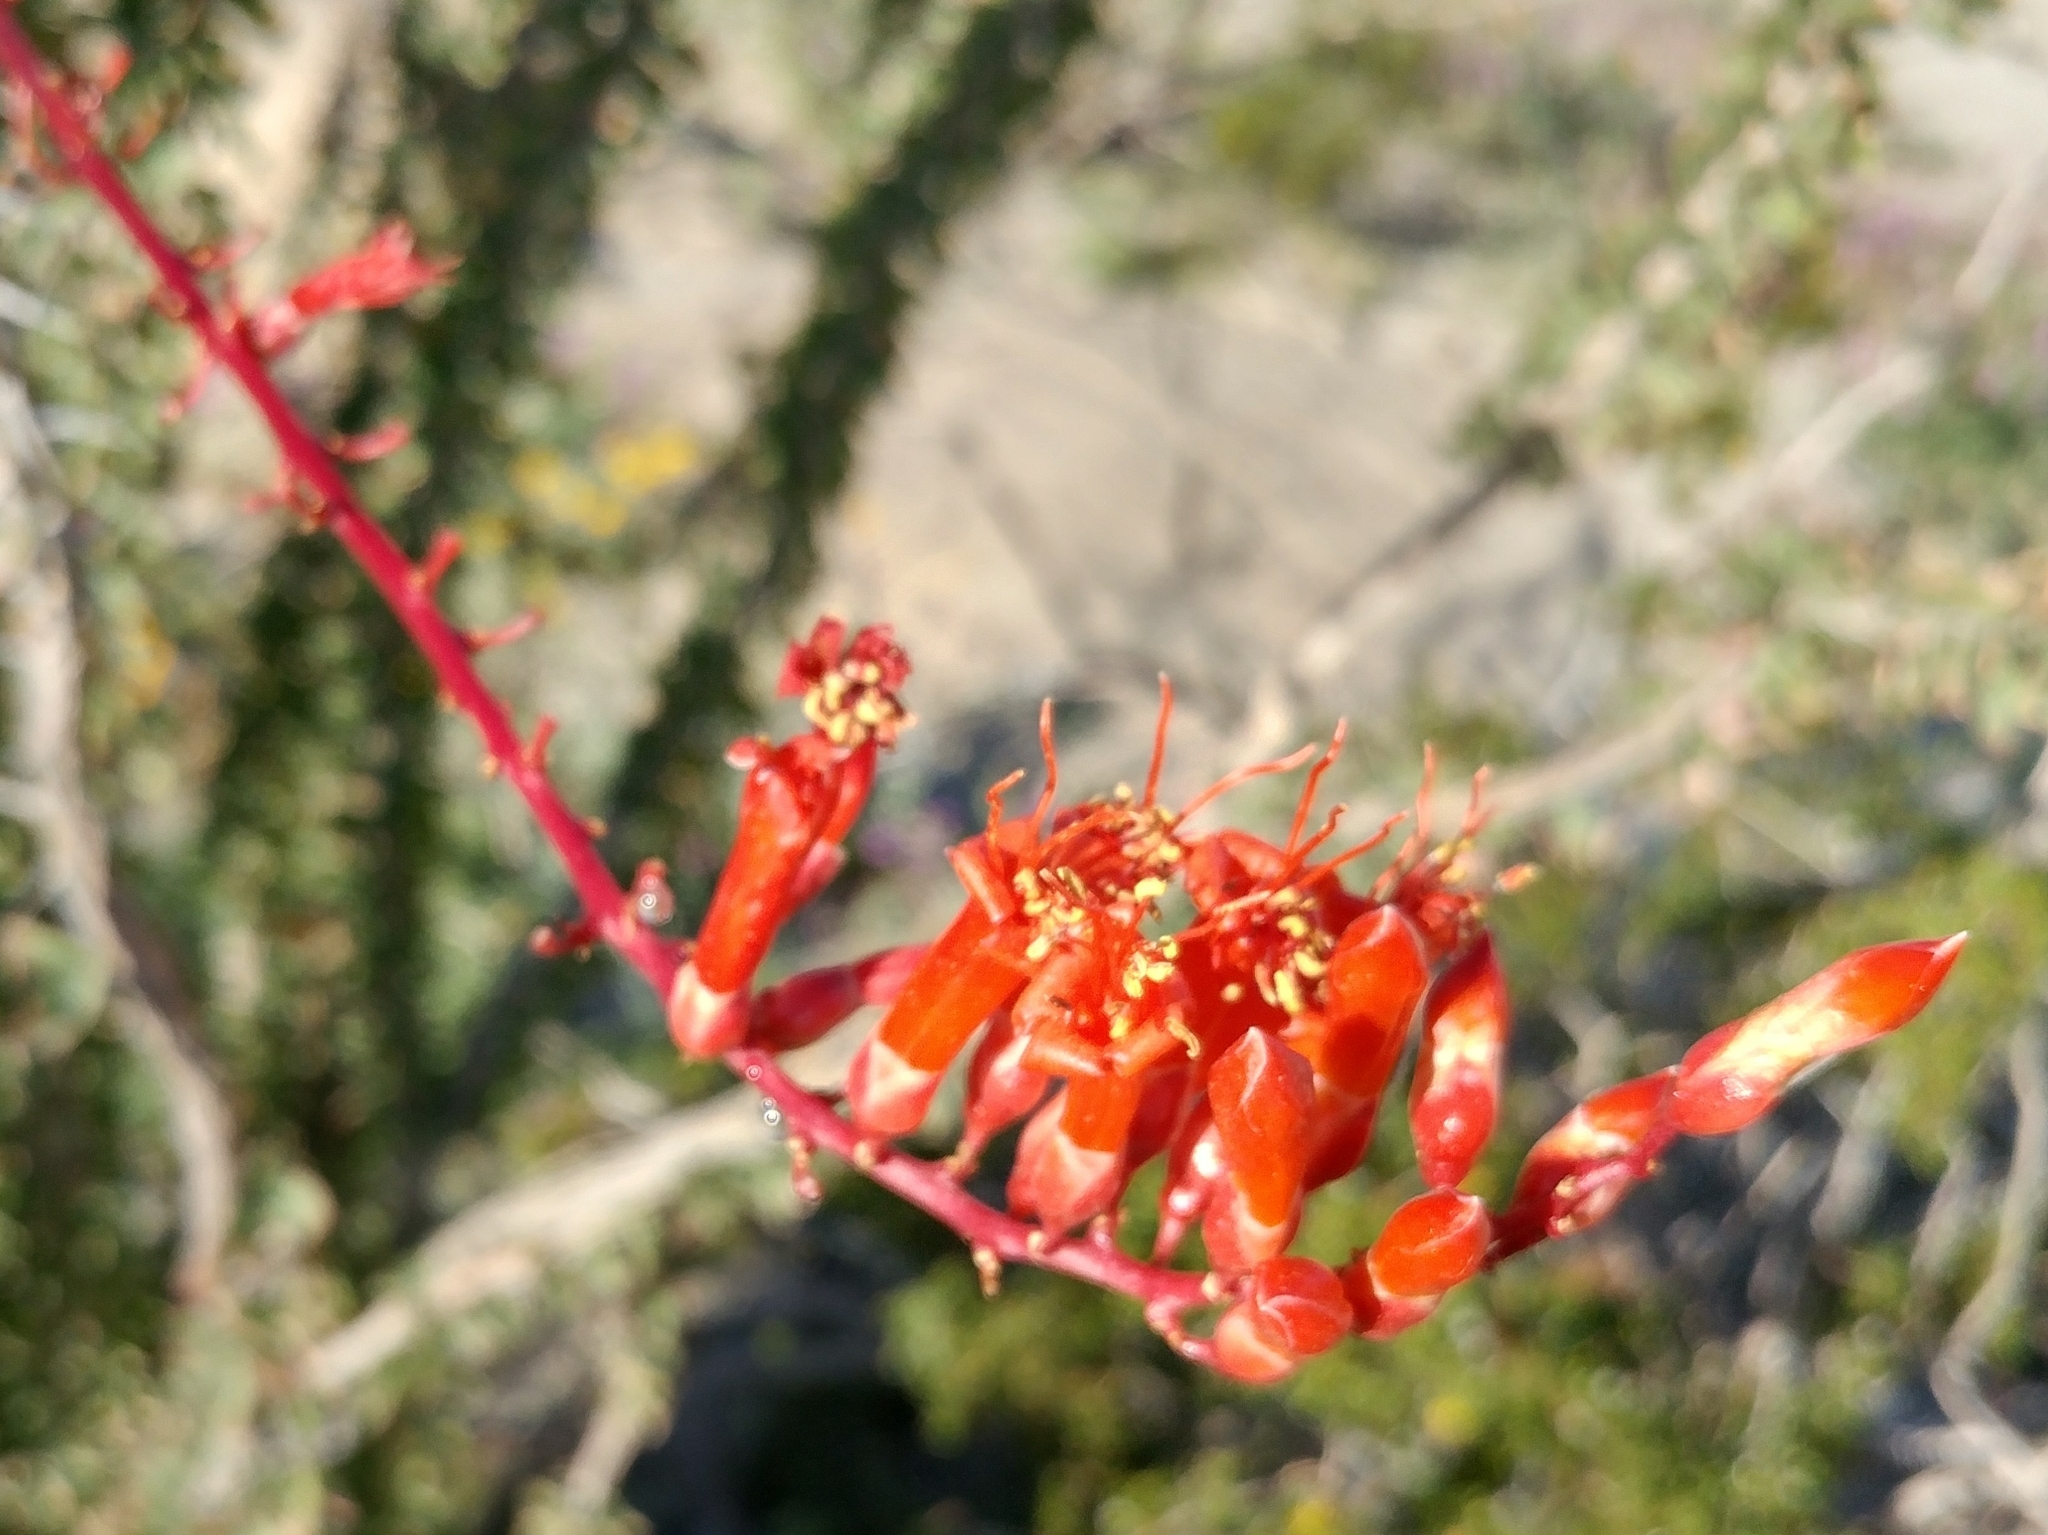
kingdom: Plantae
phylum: Tracheophyta
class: Magnoliopsida
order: Ericales
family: Fouquieriaceae
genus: Fouquieria
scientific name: Fouquieria splendens
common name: Vine-cactus
